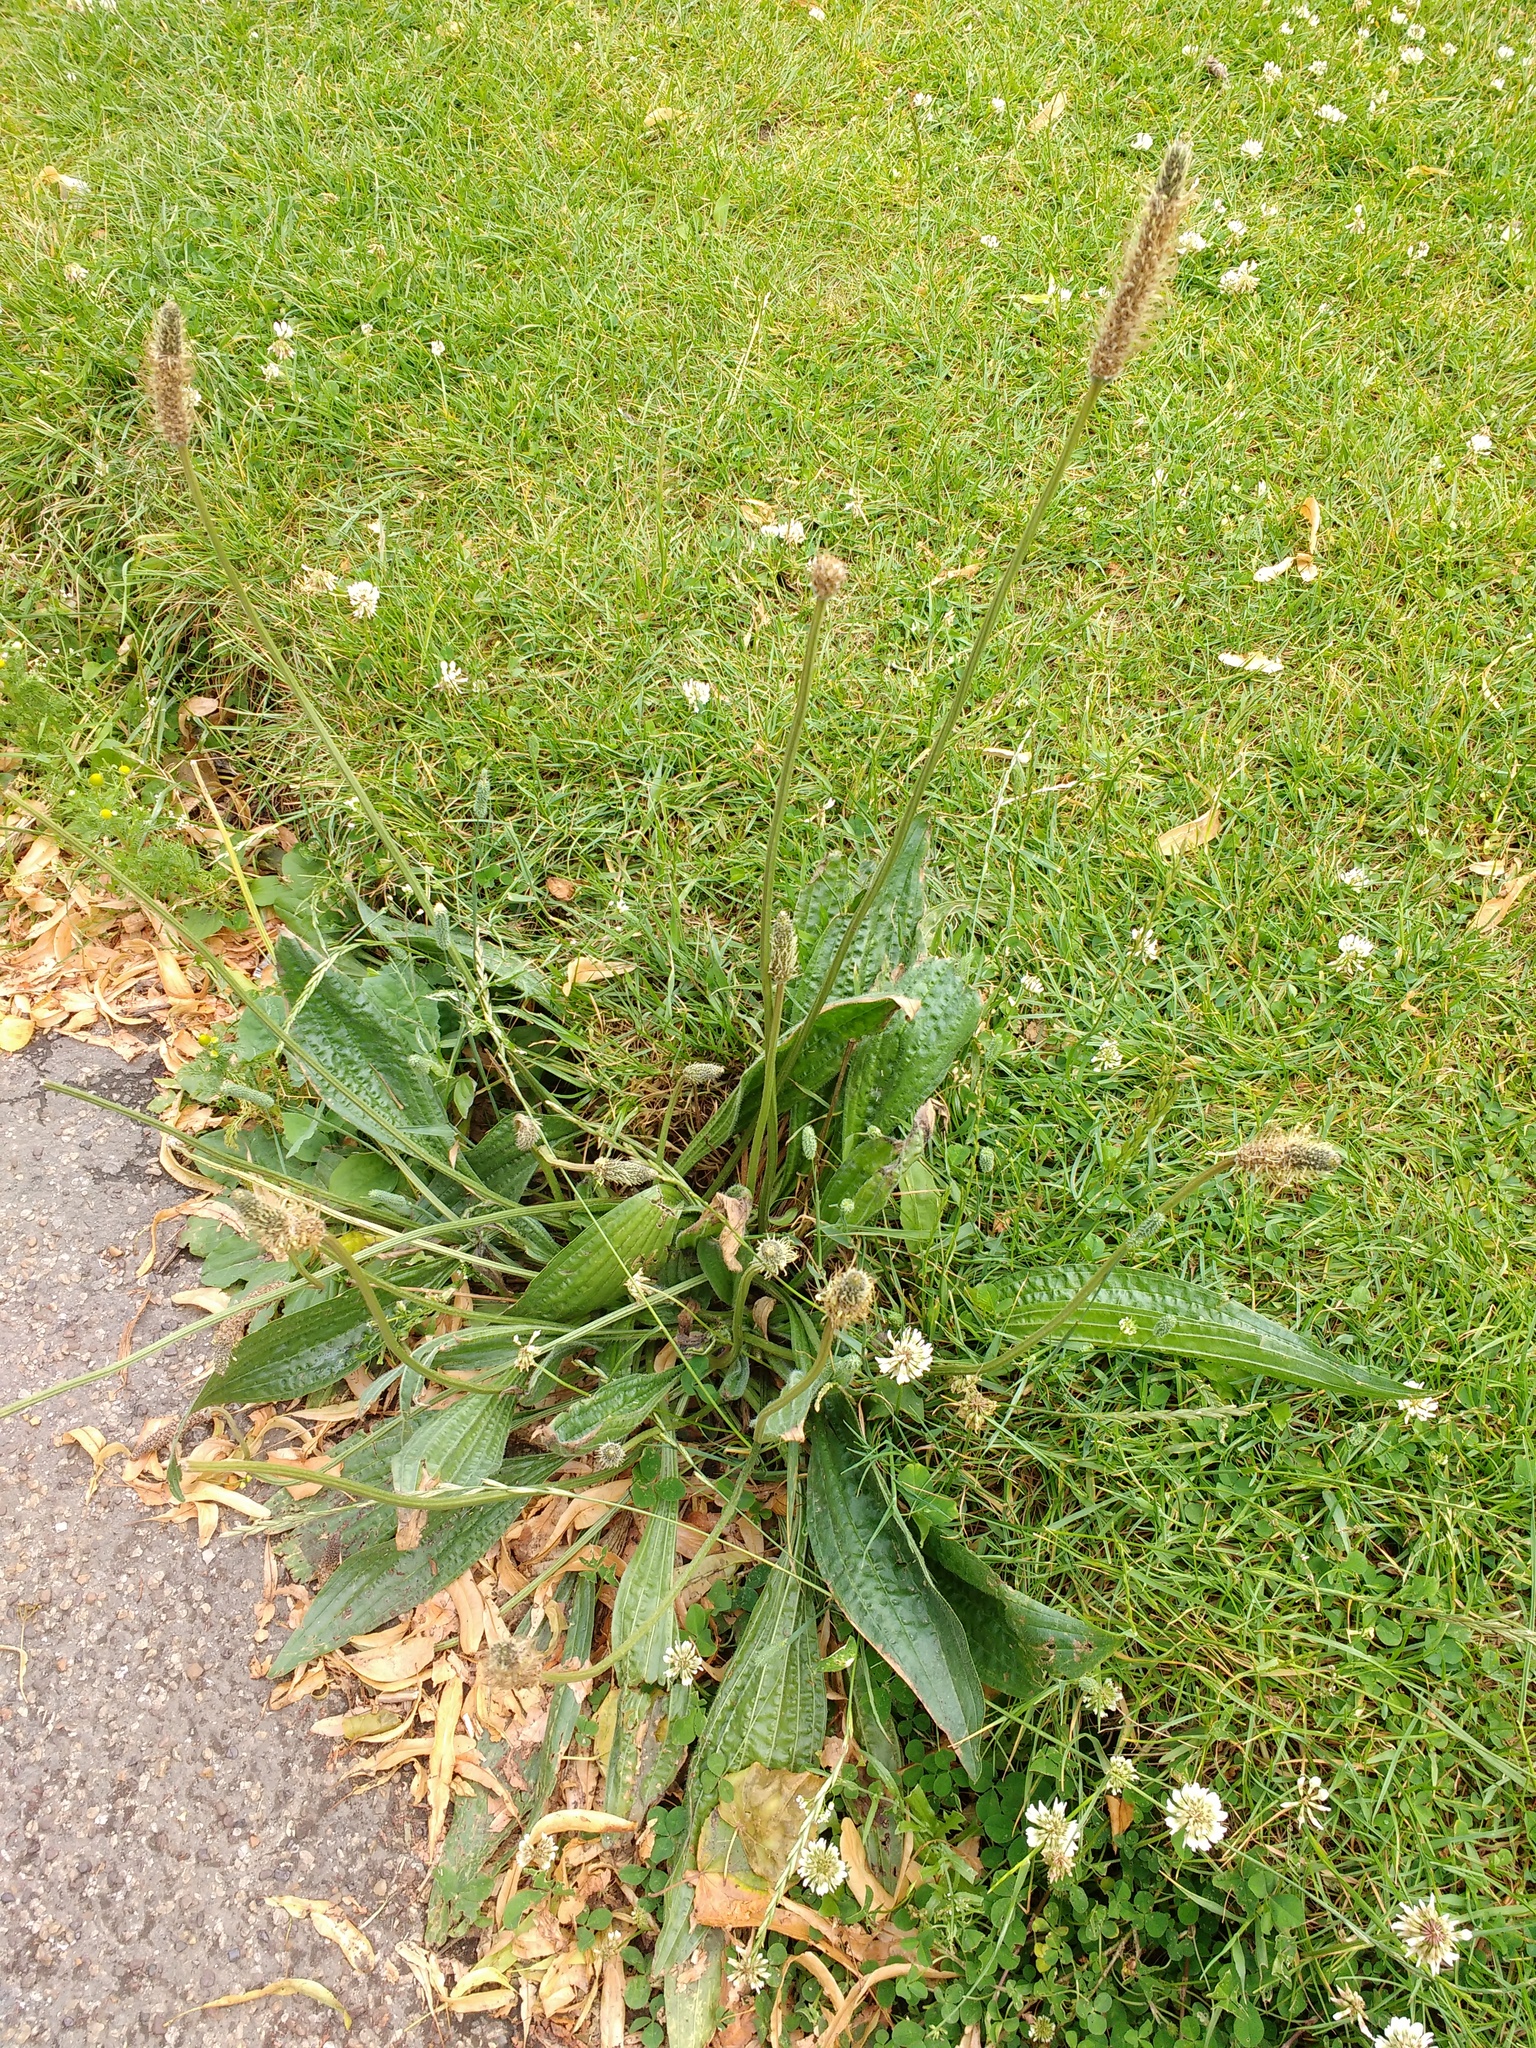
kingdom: Plantae
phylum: Tracheophyta
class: Magnoliopsida
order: Lamiales
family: Plantaginaceae
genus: Plantago
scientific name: Plantago lanceolata
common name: Ribwort plantain
